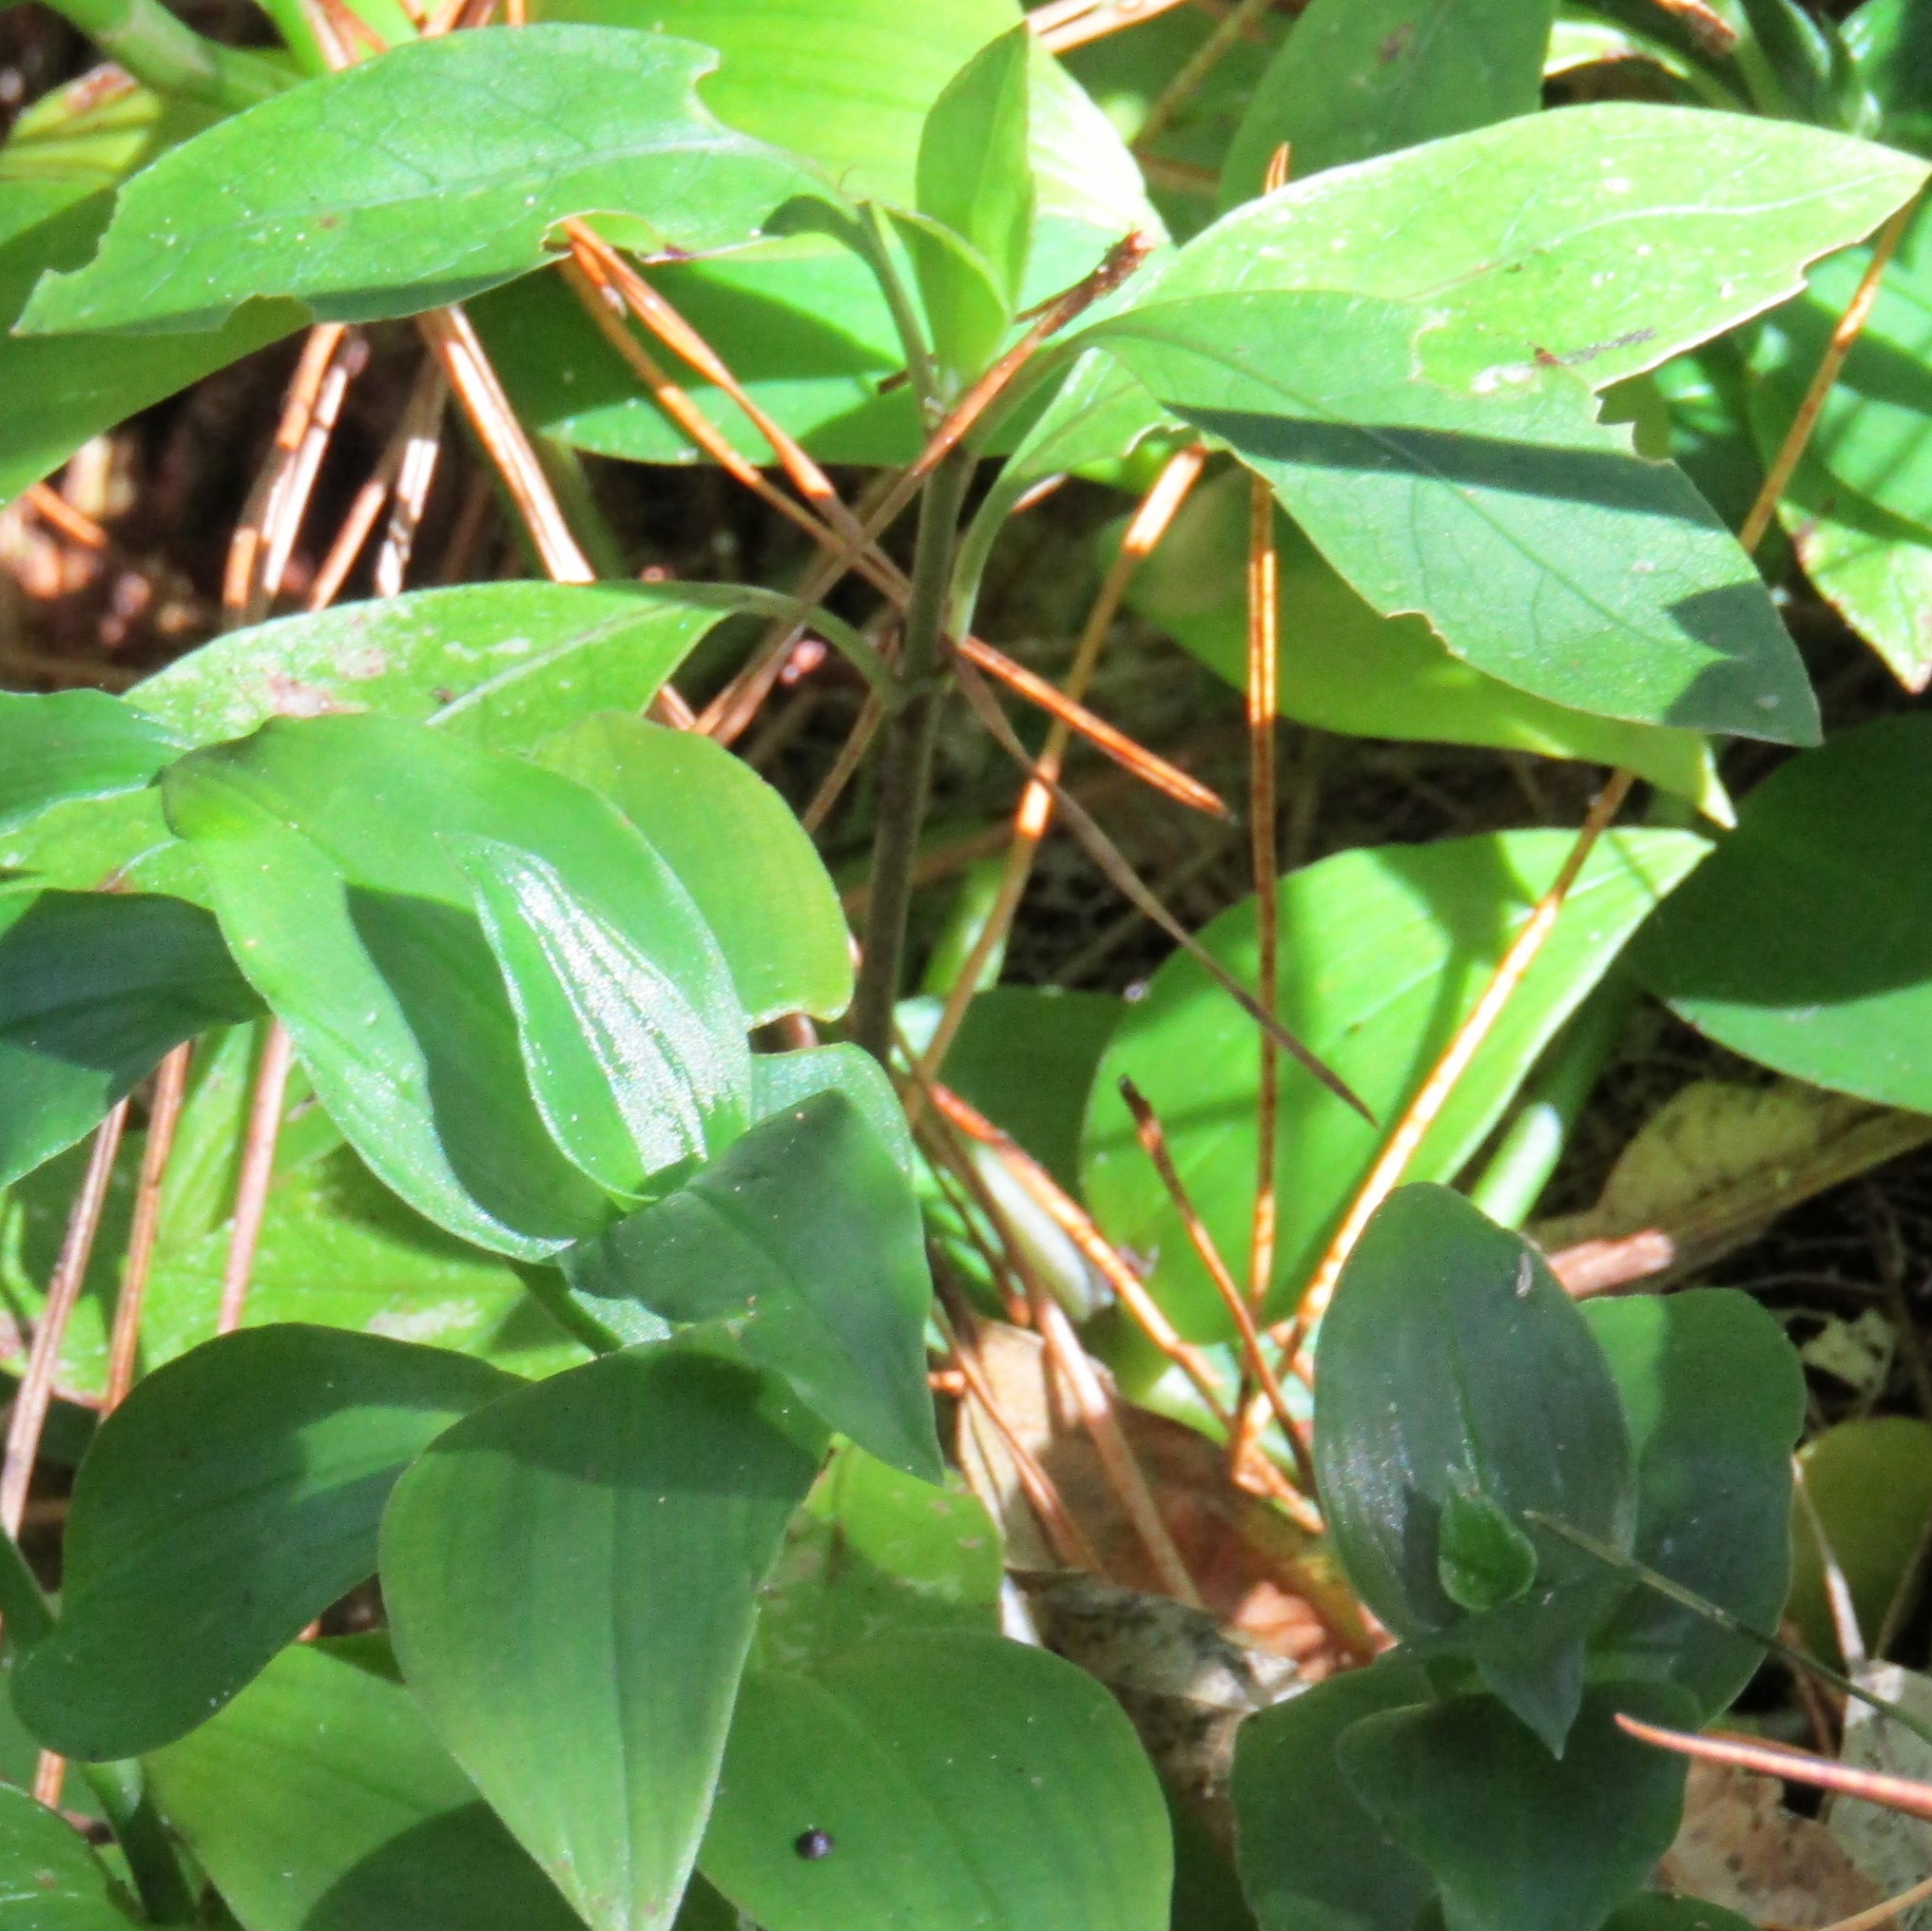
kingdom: Plantae
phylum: Tracheophyta
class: Magnoliopsida
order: Gentianales
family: Rubiaceae
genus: Coprosma
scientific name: Coprosma robusta
